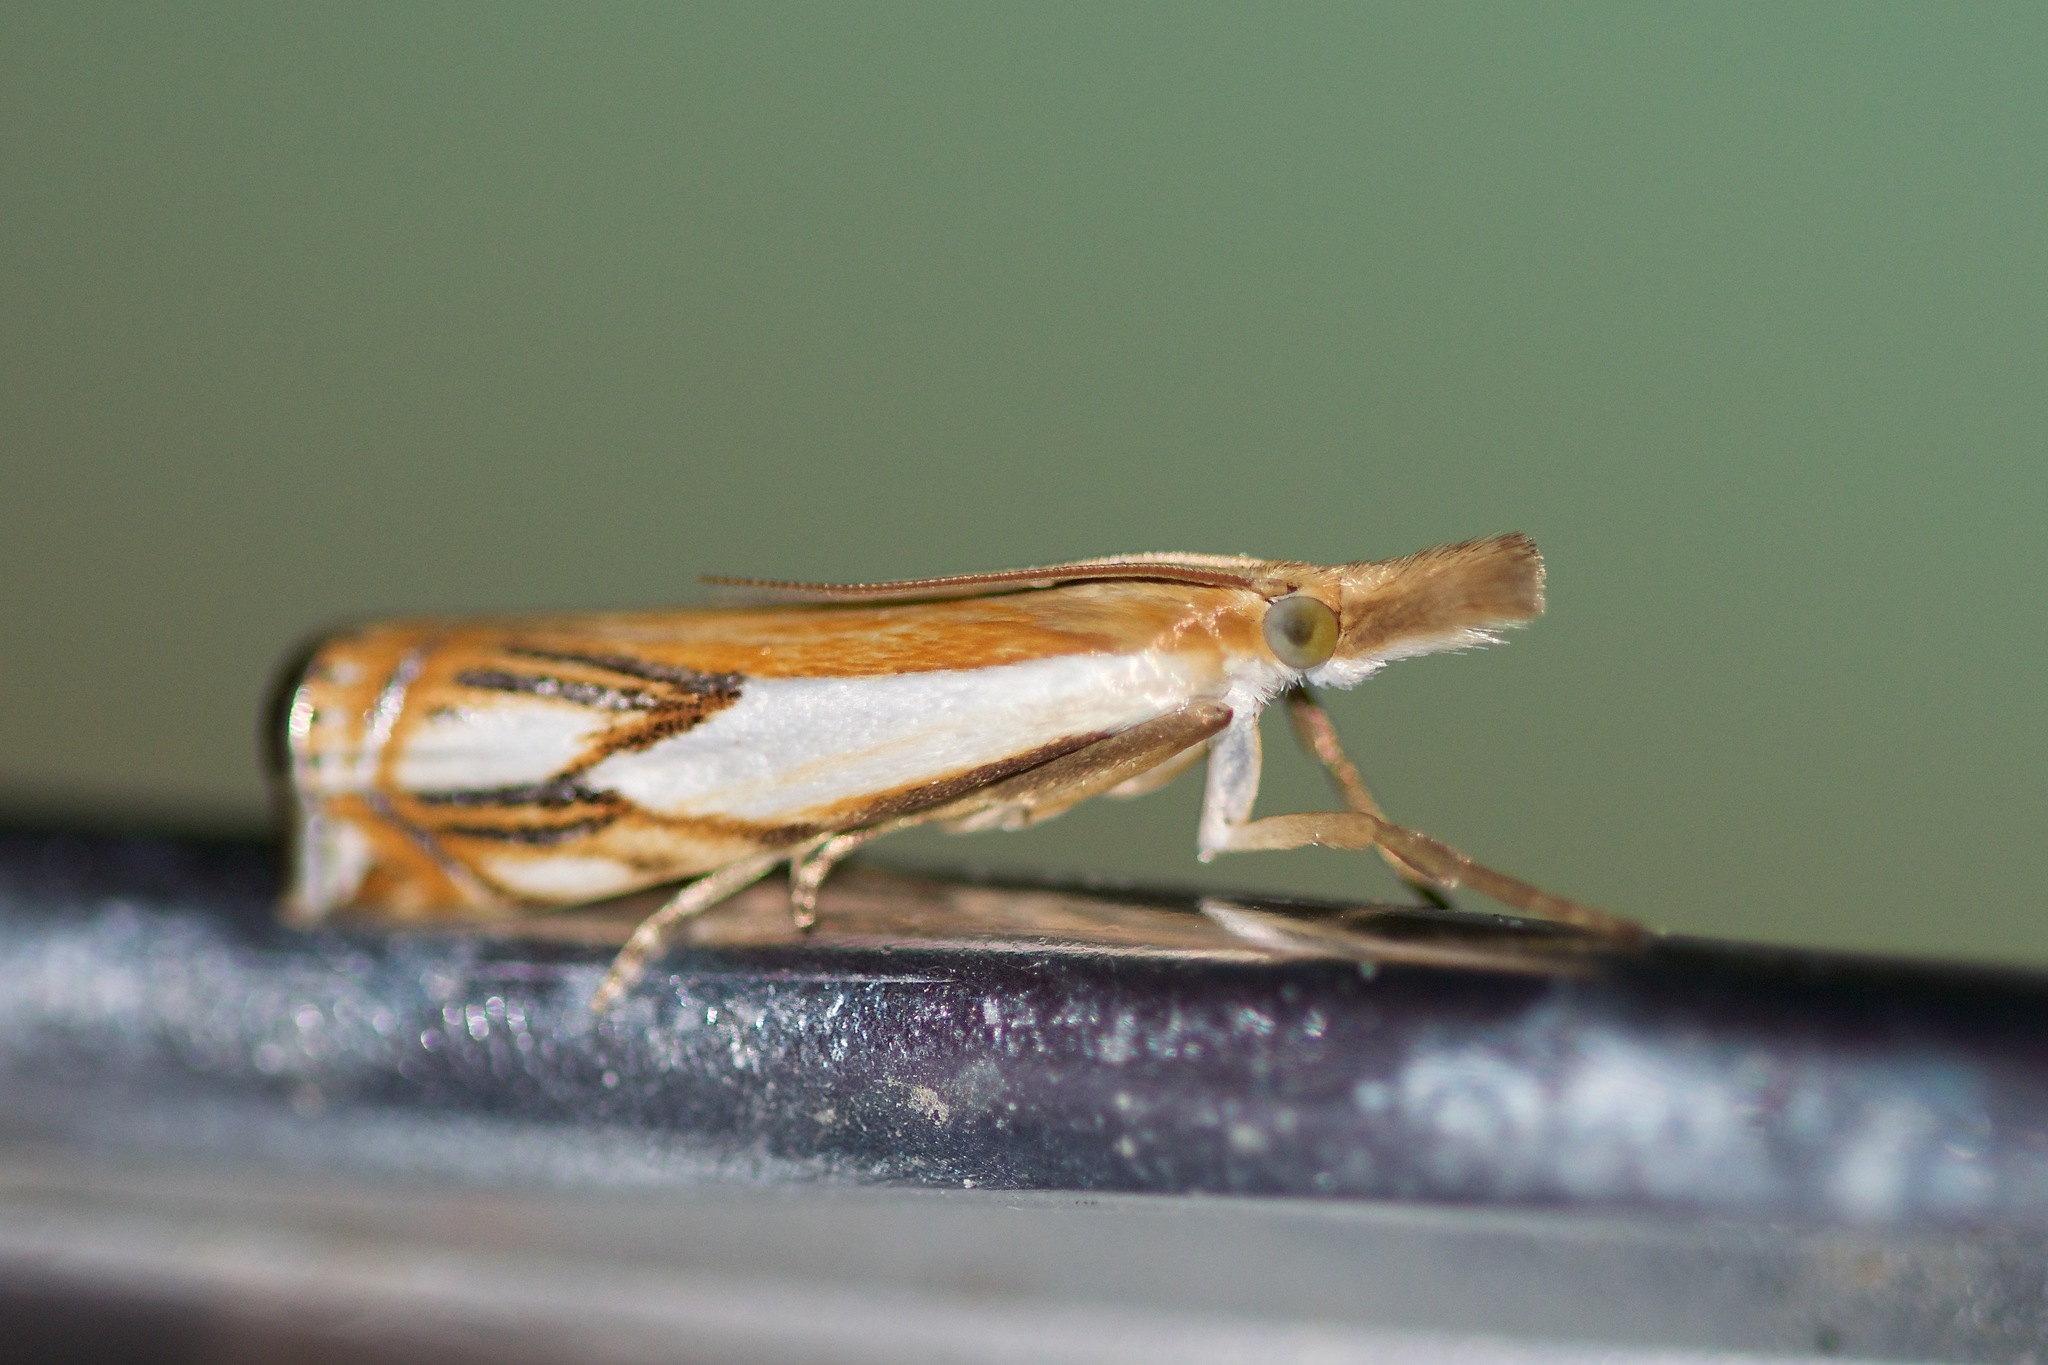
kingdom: Animalia
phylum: Arthropoda
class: Insecta
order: Lepidoptera
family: Crambidae
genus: Crambus
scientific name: Crambus agitatellus
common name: Double-banded grass-veneer
